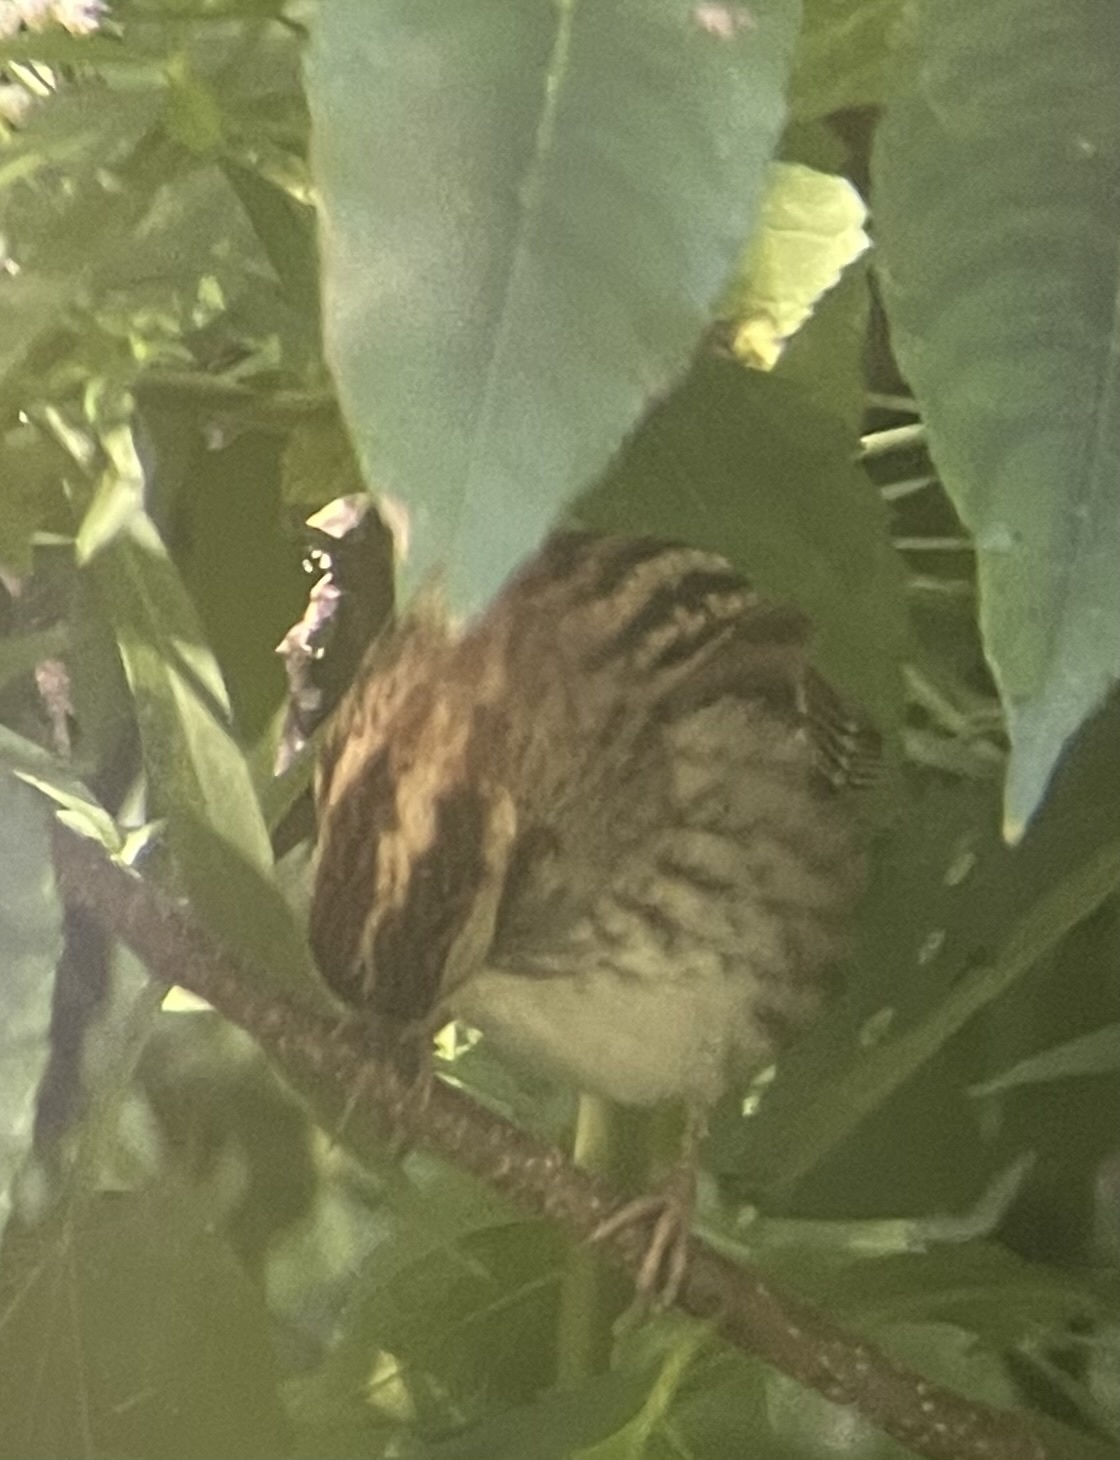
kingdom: Animalia
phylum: Chordata
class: Aves
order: Passeriformes
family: Passerellidae
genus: Zonotrichia
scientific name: Zonotrichia albicollis
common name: White-throated sparrow
